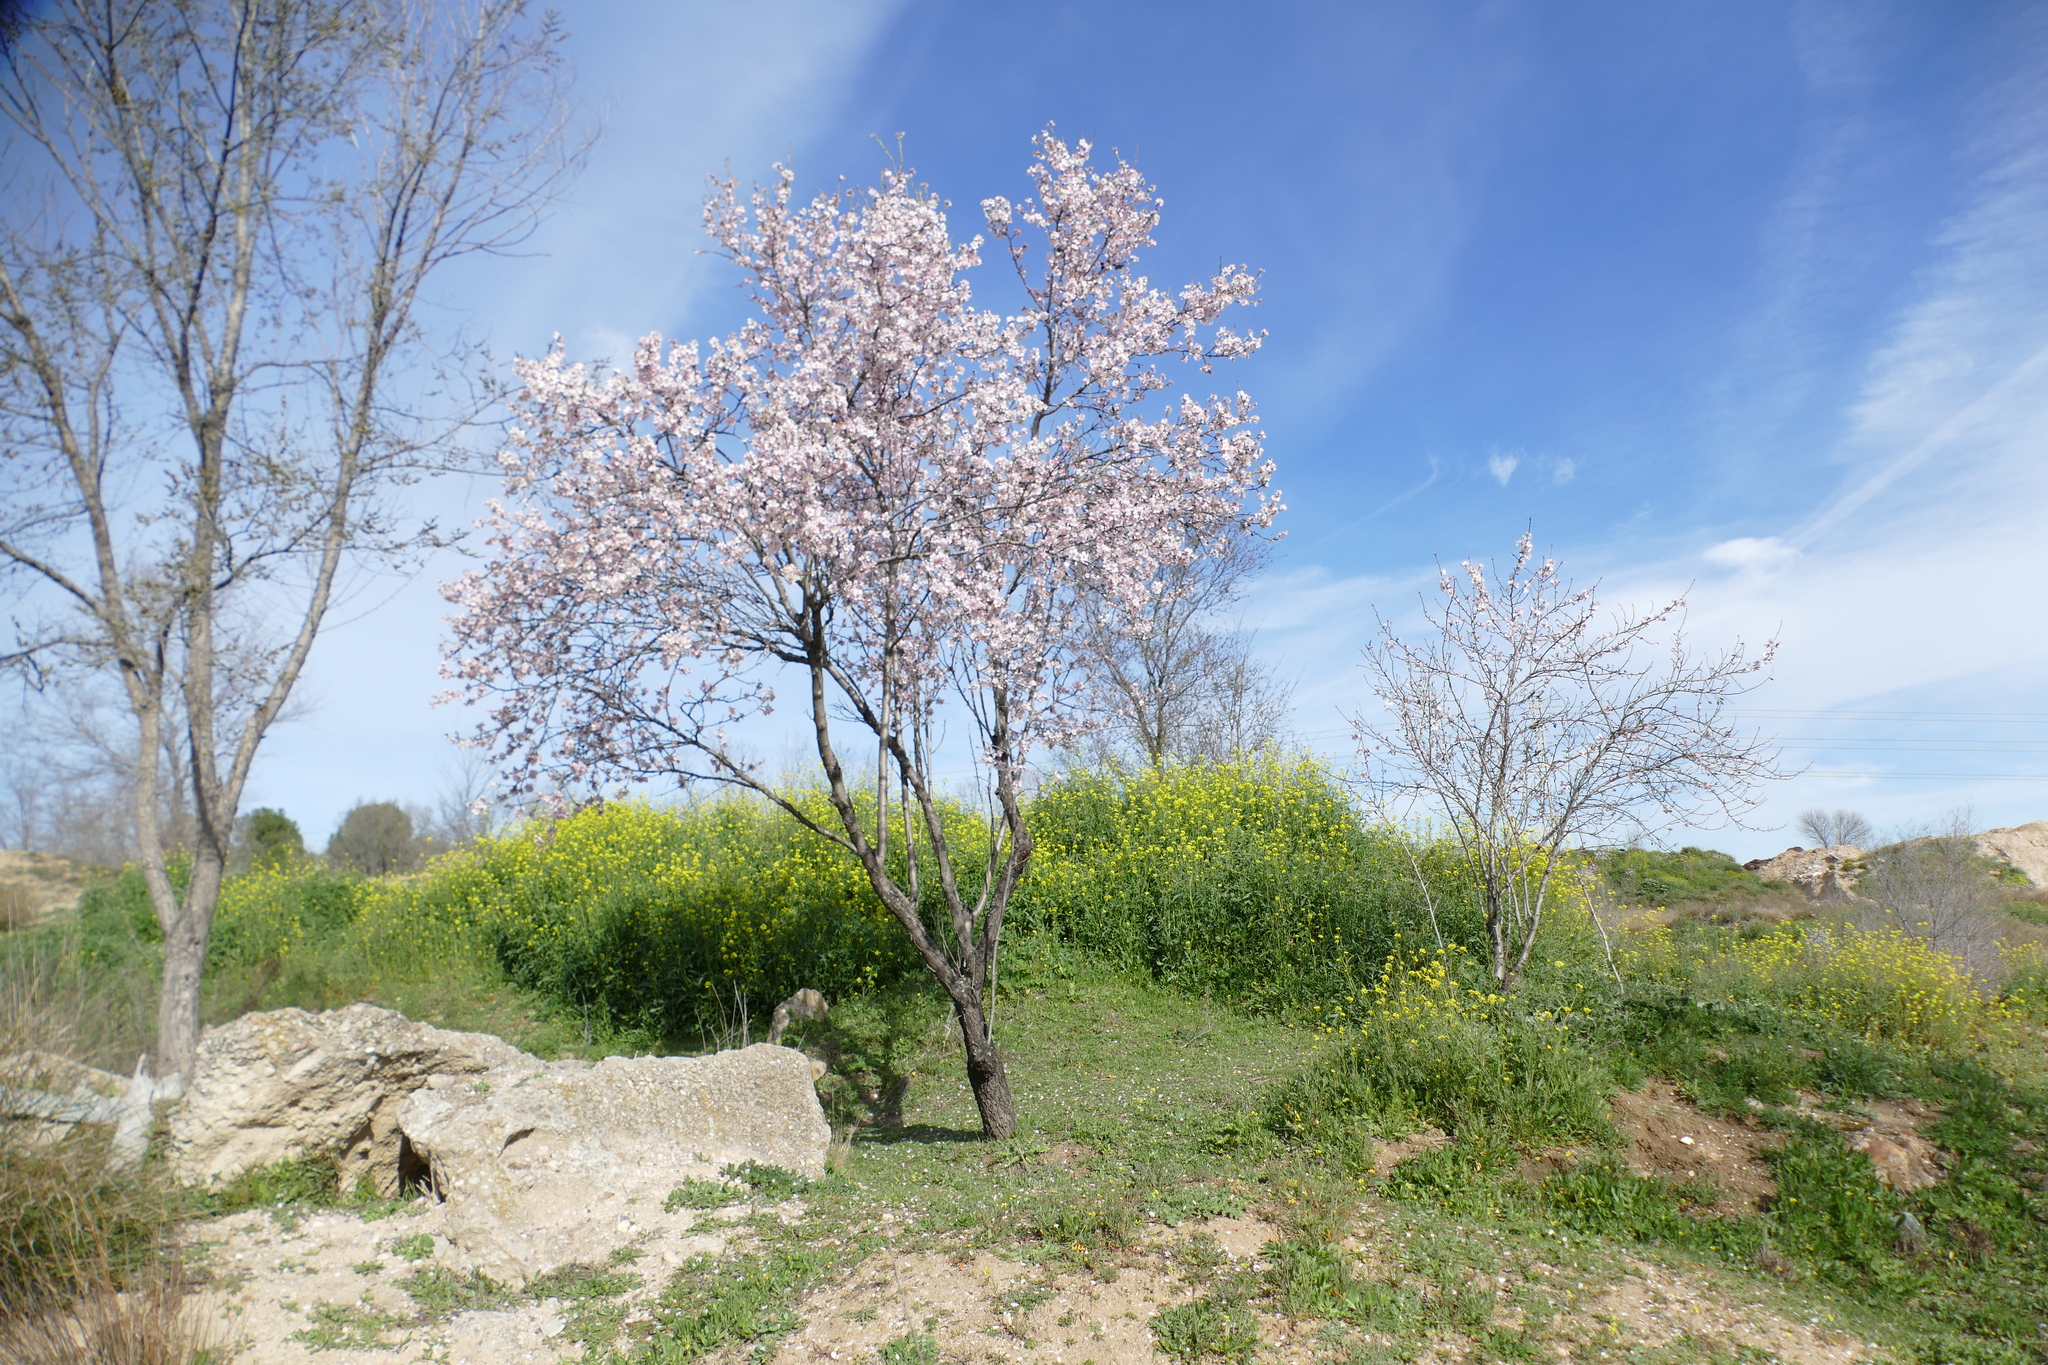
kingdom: Plantae
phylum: Tracheophyta
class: Magnoliopsida
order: Rosales
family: Rosaceae
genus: Prunus
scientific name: Prunus amygdalus
